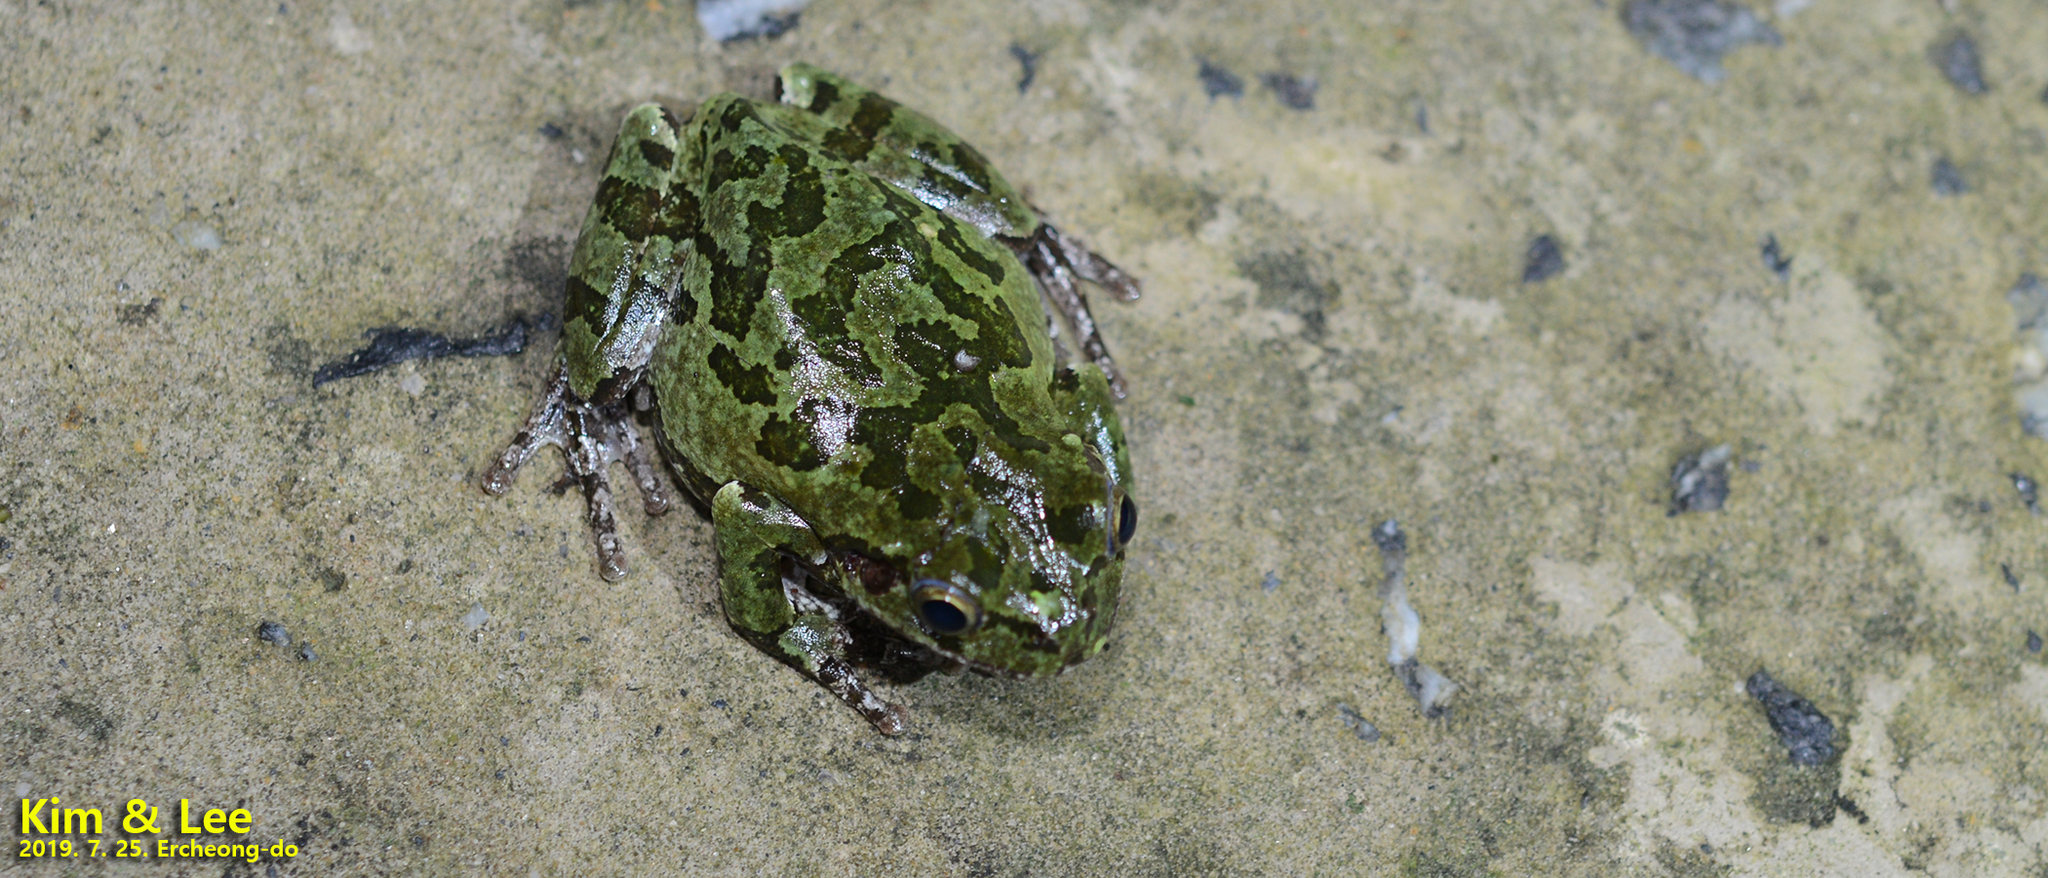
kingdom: Animalia
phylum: Chordata
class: Amphibia
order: Anura
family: Hylidae
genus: Dryophytes
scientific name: Dryophytes japonicus
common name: Japanese treefrog
